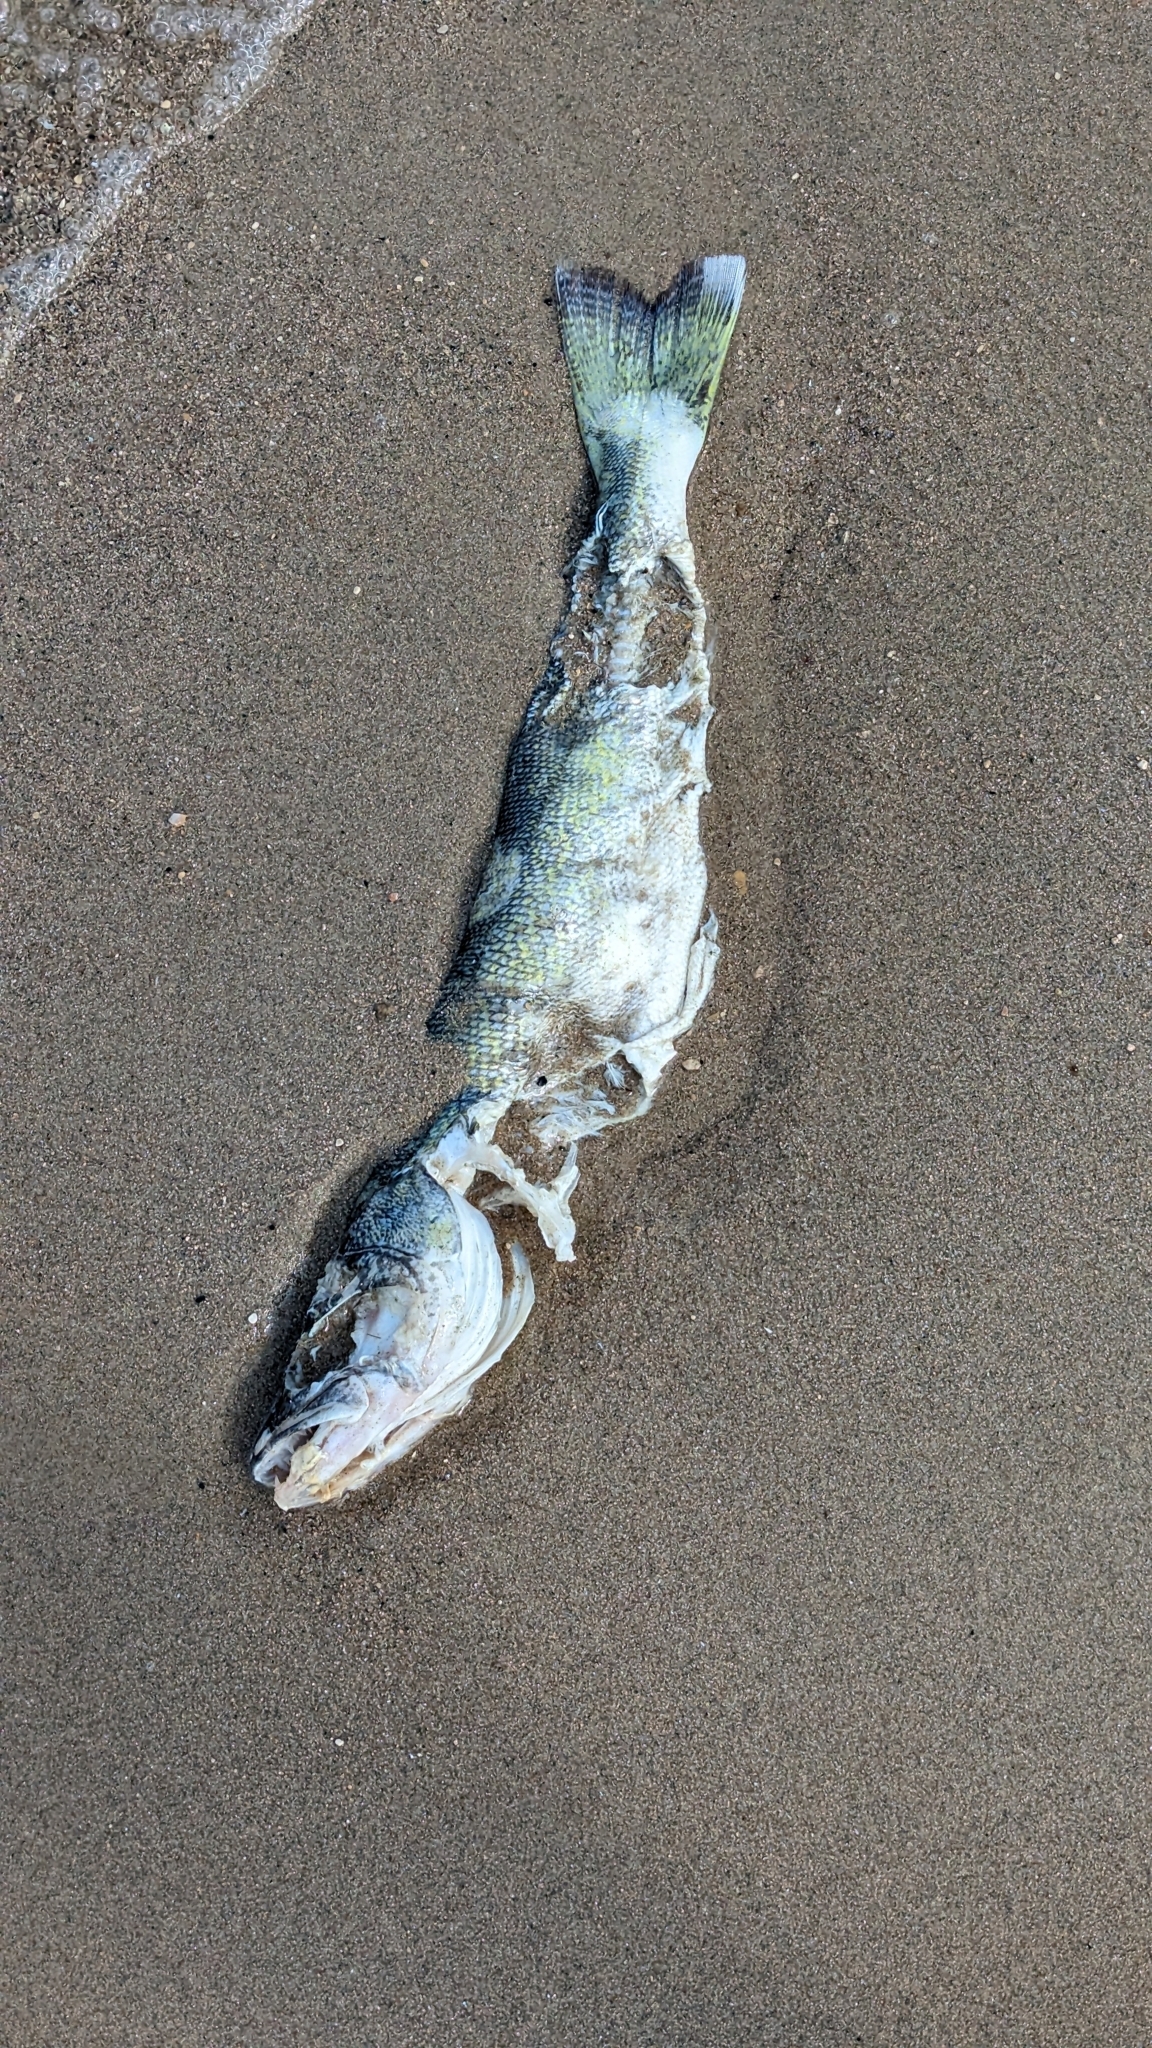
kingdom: Animalia
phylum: Chordata
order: Perciformes
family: Percidae
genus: Sander
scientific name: Sander vitreus
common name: Walleye
